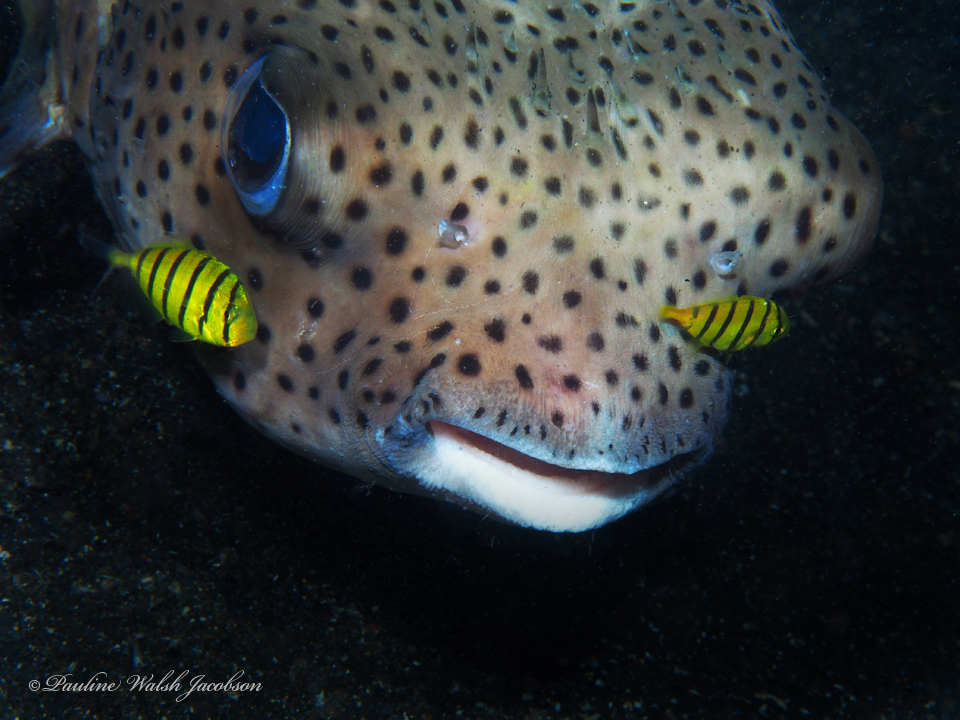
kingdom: Animalia
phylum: Chordata
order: Perciformes
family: Carangidae
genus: Gnathanodon
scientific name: Gnathanodon speciosus
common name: Golden toothless trevally
